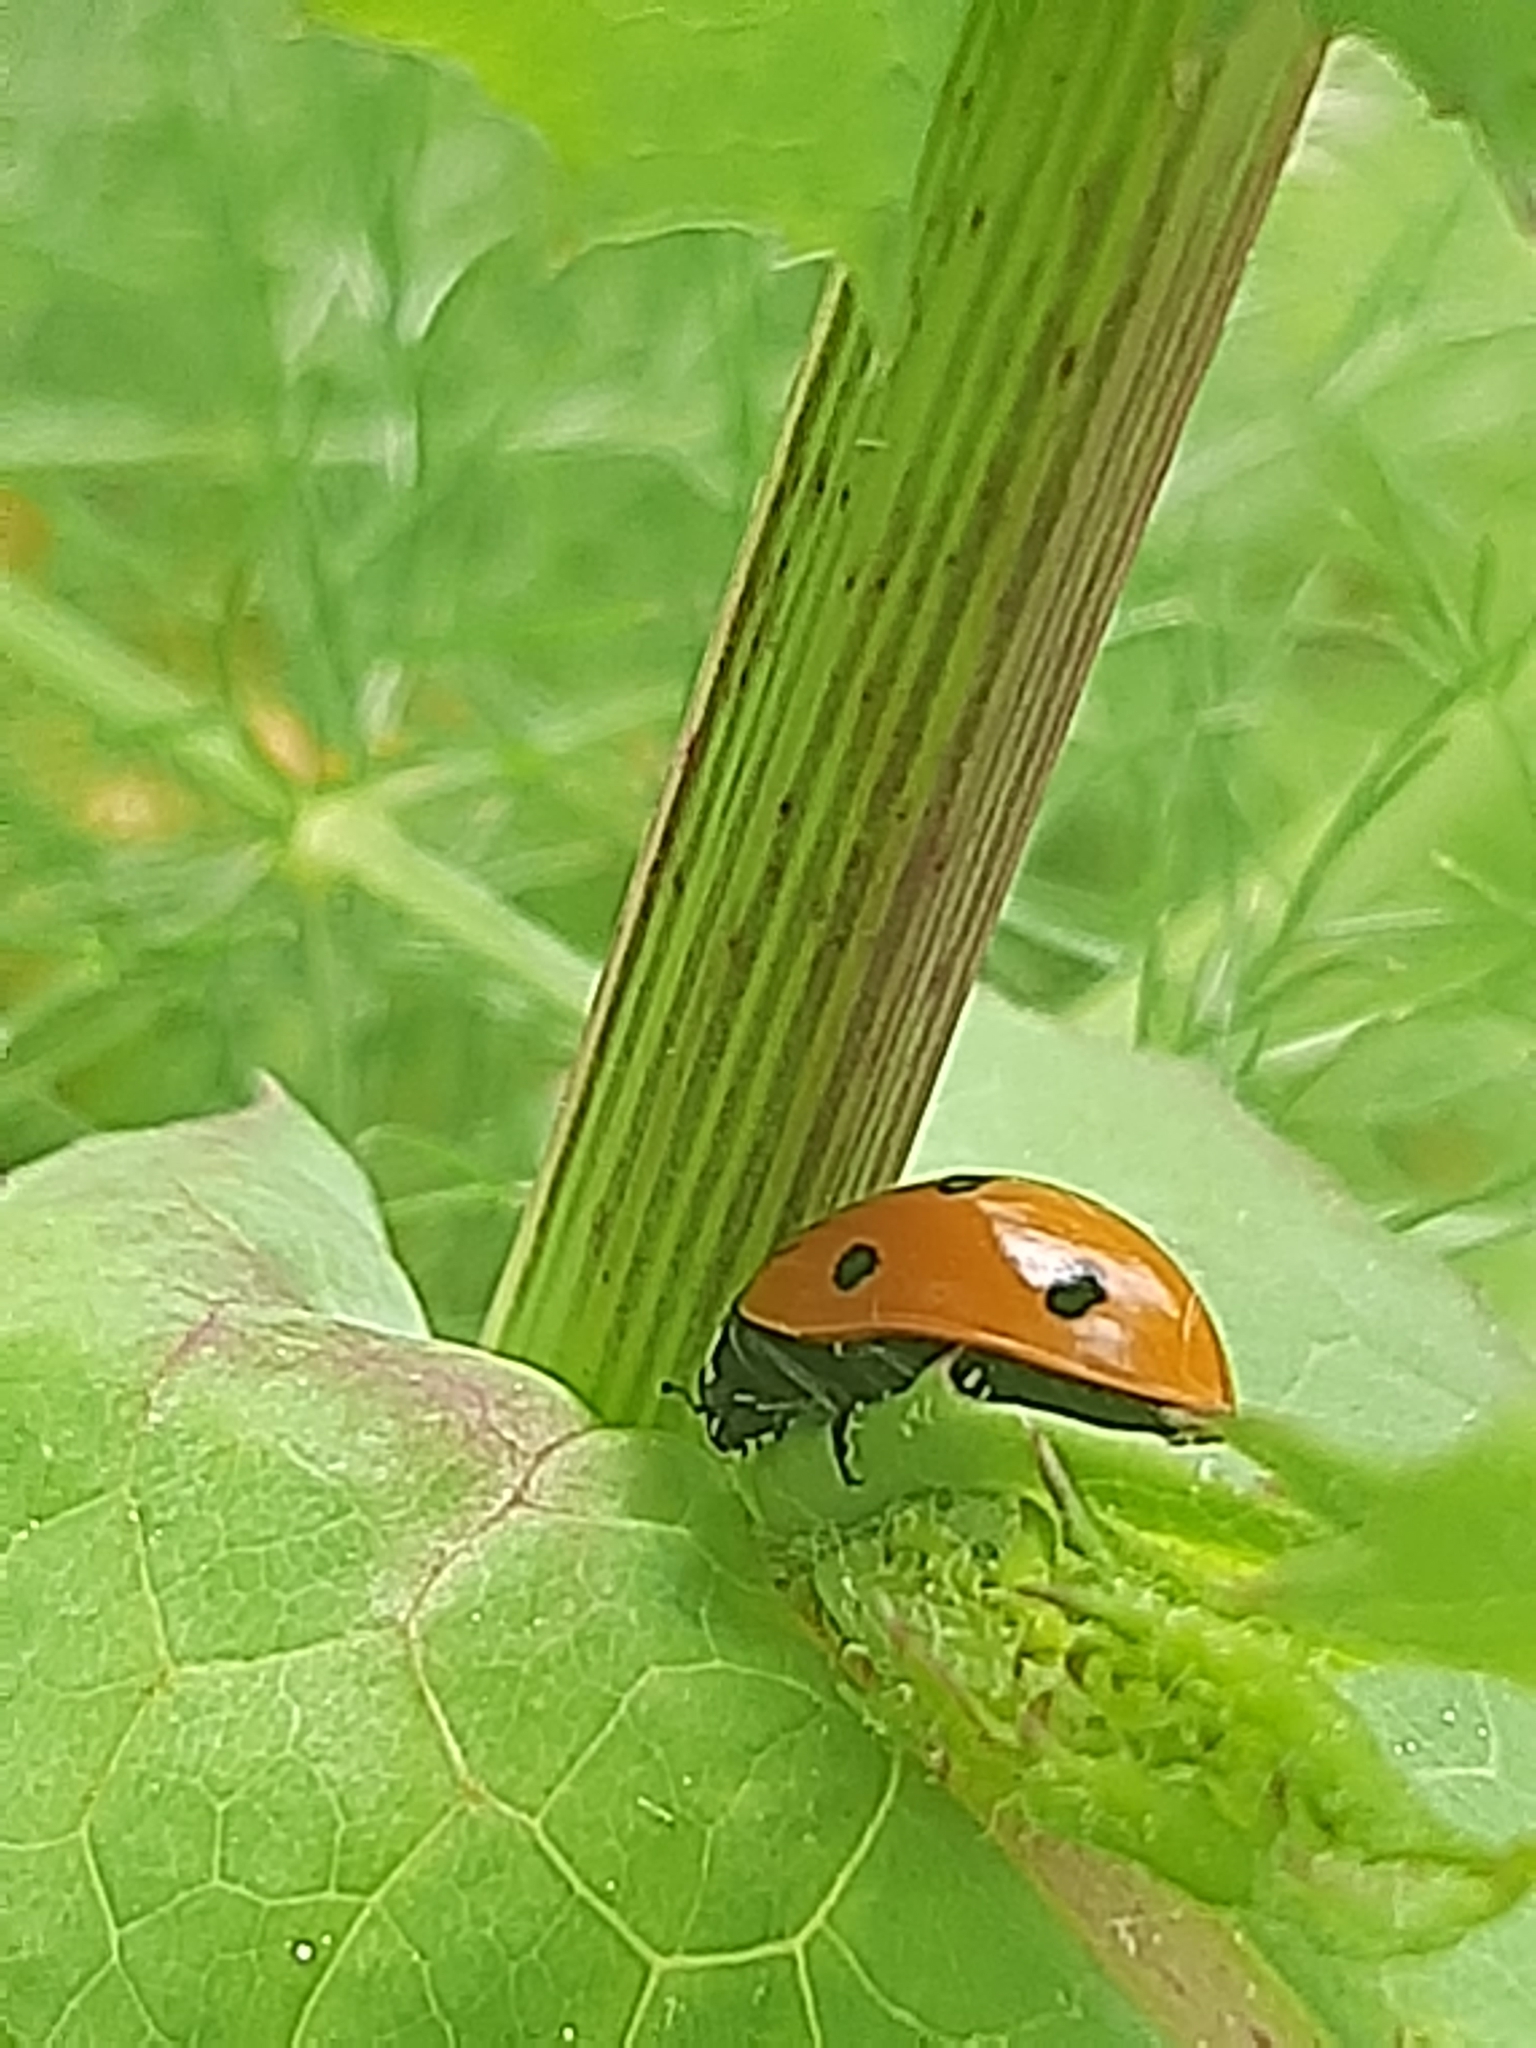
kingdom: Animalia
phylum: Arthropoda
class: Insecta
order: Coleoptera
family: Coccinellidae
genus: Coccinella
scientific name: Coccinella septempunctata
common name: Sevenspotted lady beetle
